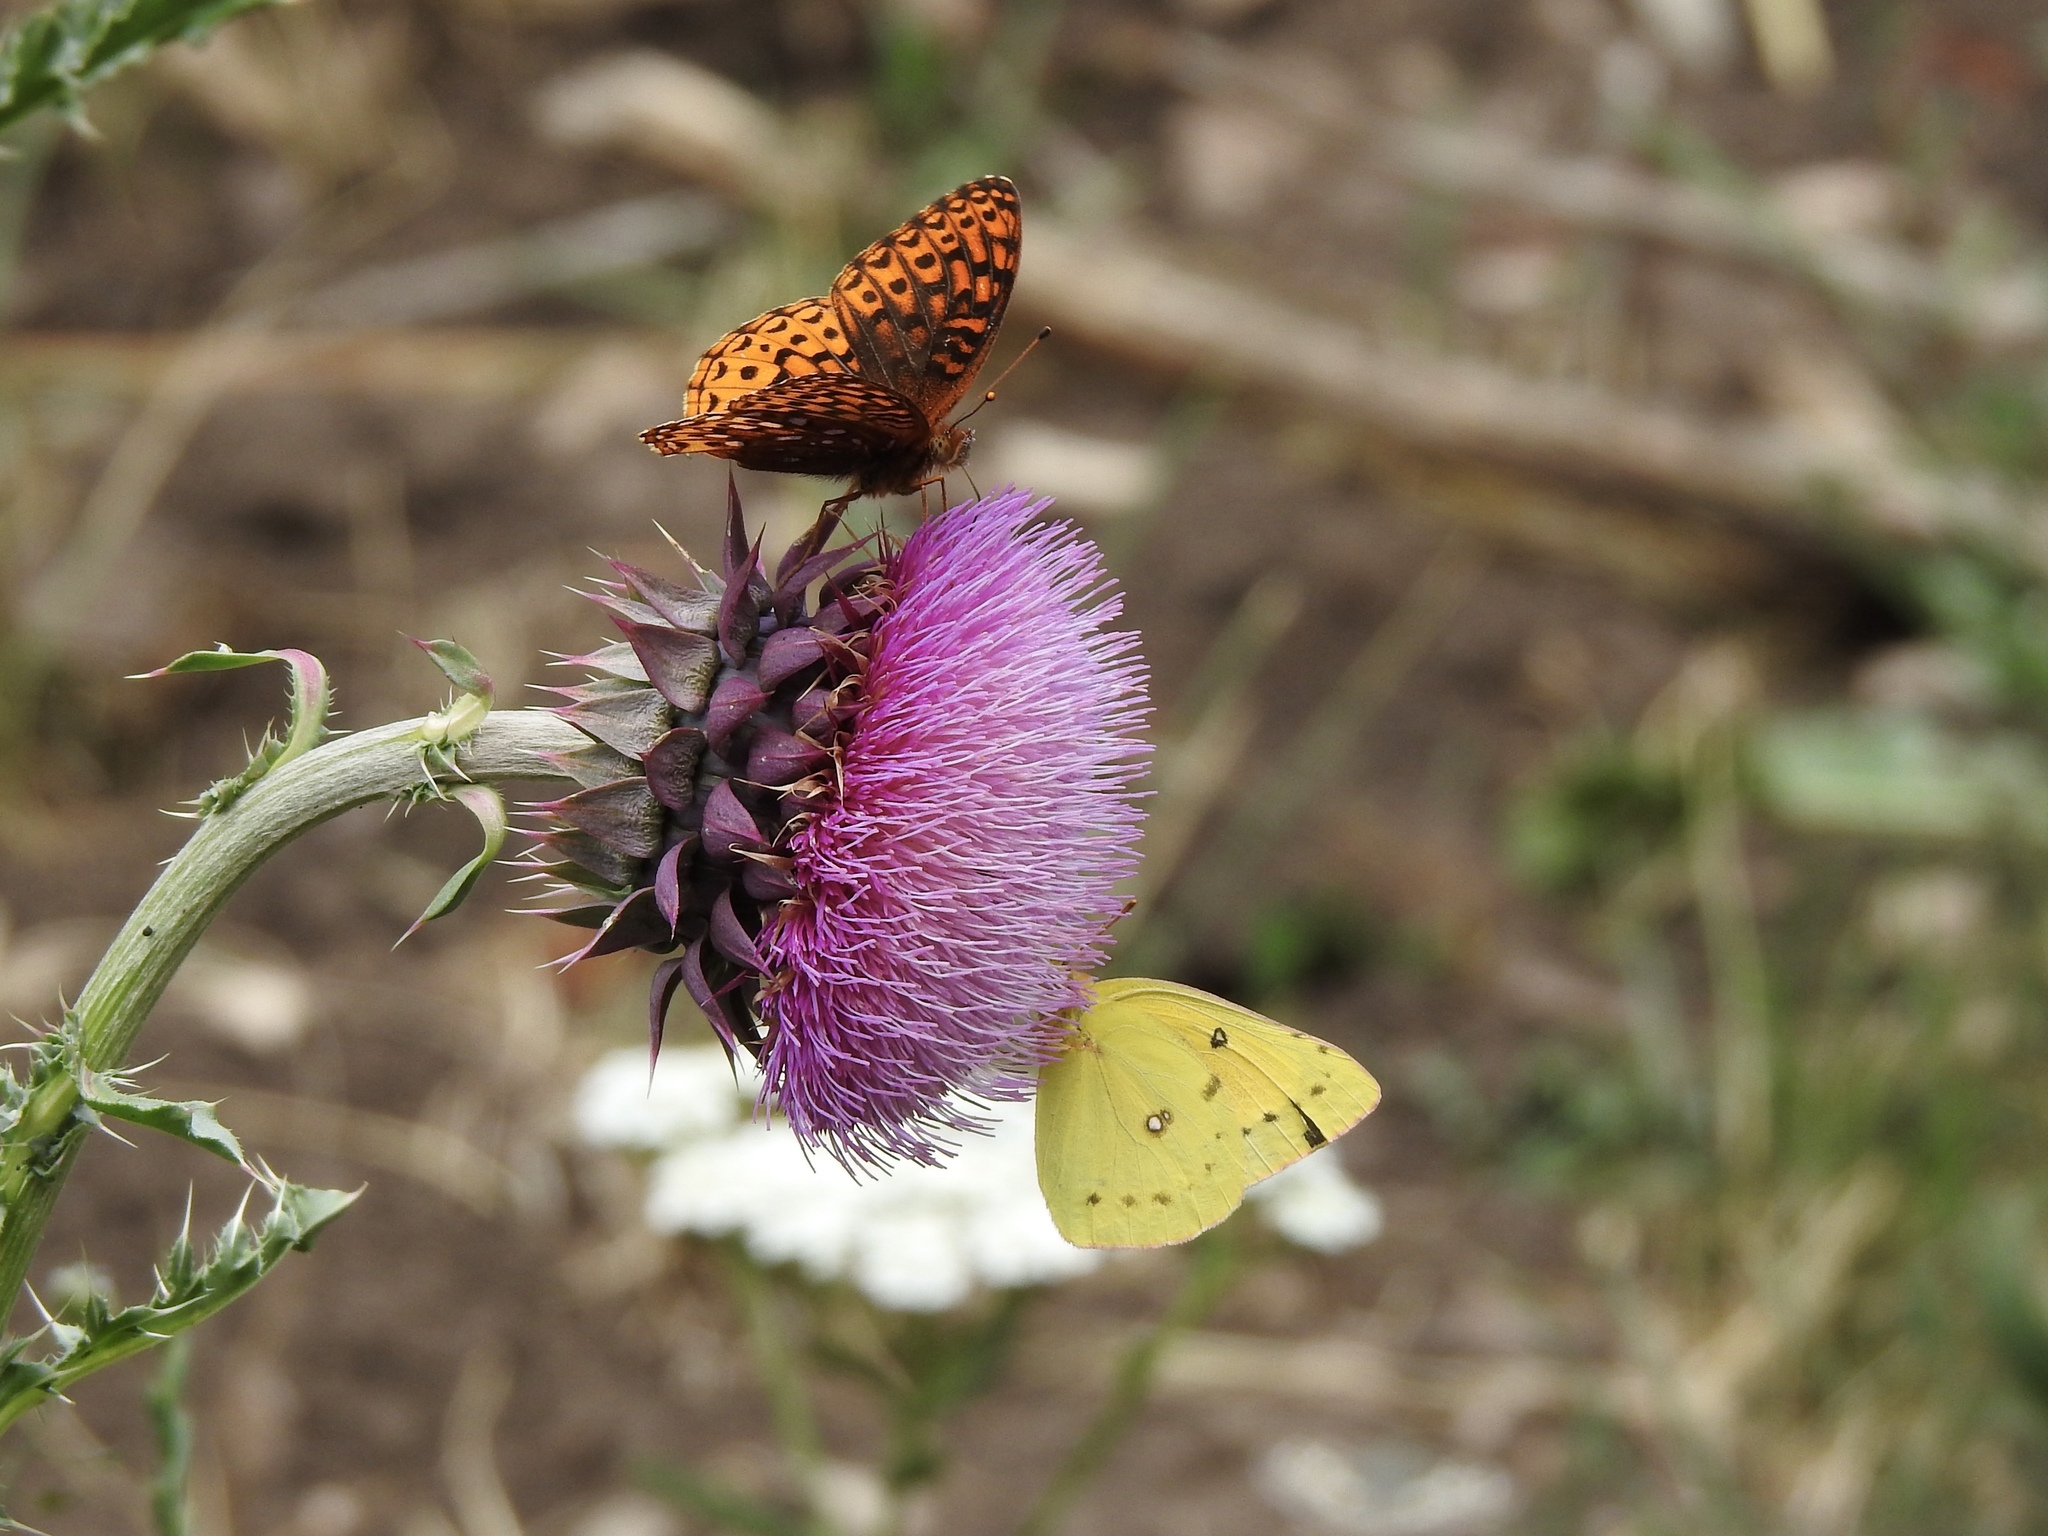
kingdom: Animalia
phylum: Arthropoda
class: Insecta
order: Lepidoptera
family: Nymphalidae
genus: Speyeria
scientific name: Speyeria atlantis
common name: Atlantis fritillary
